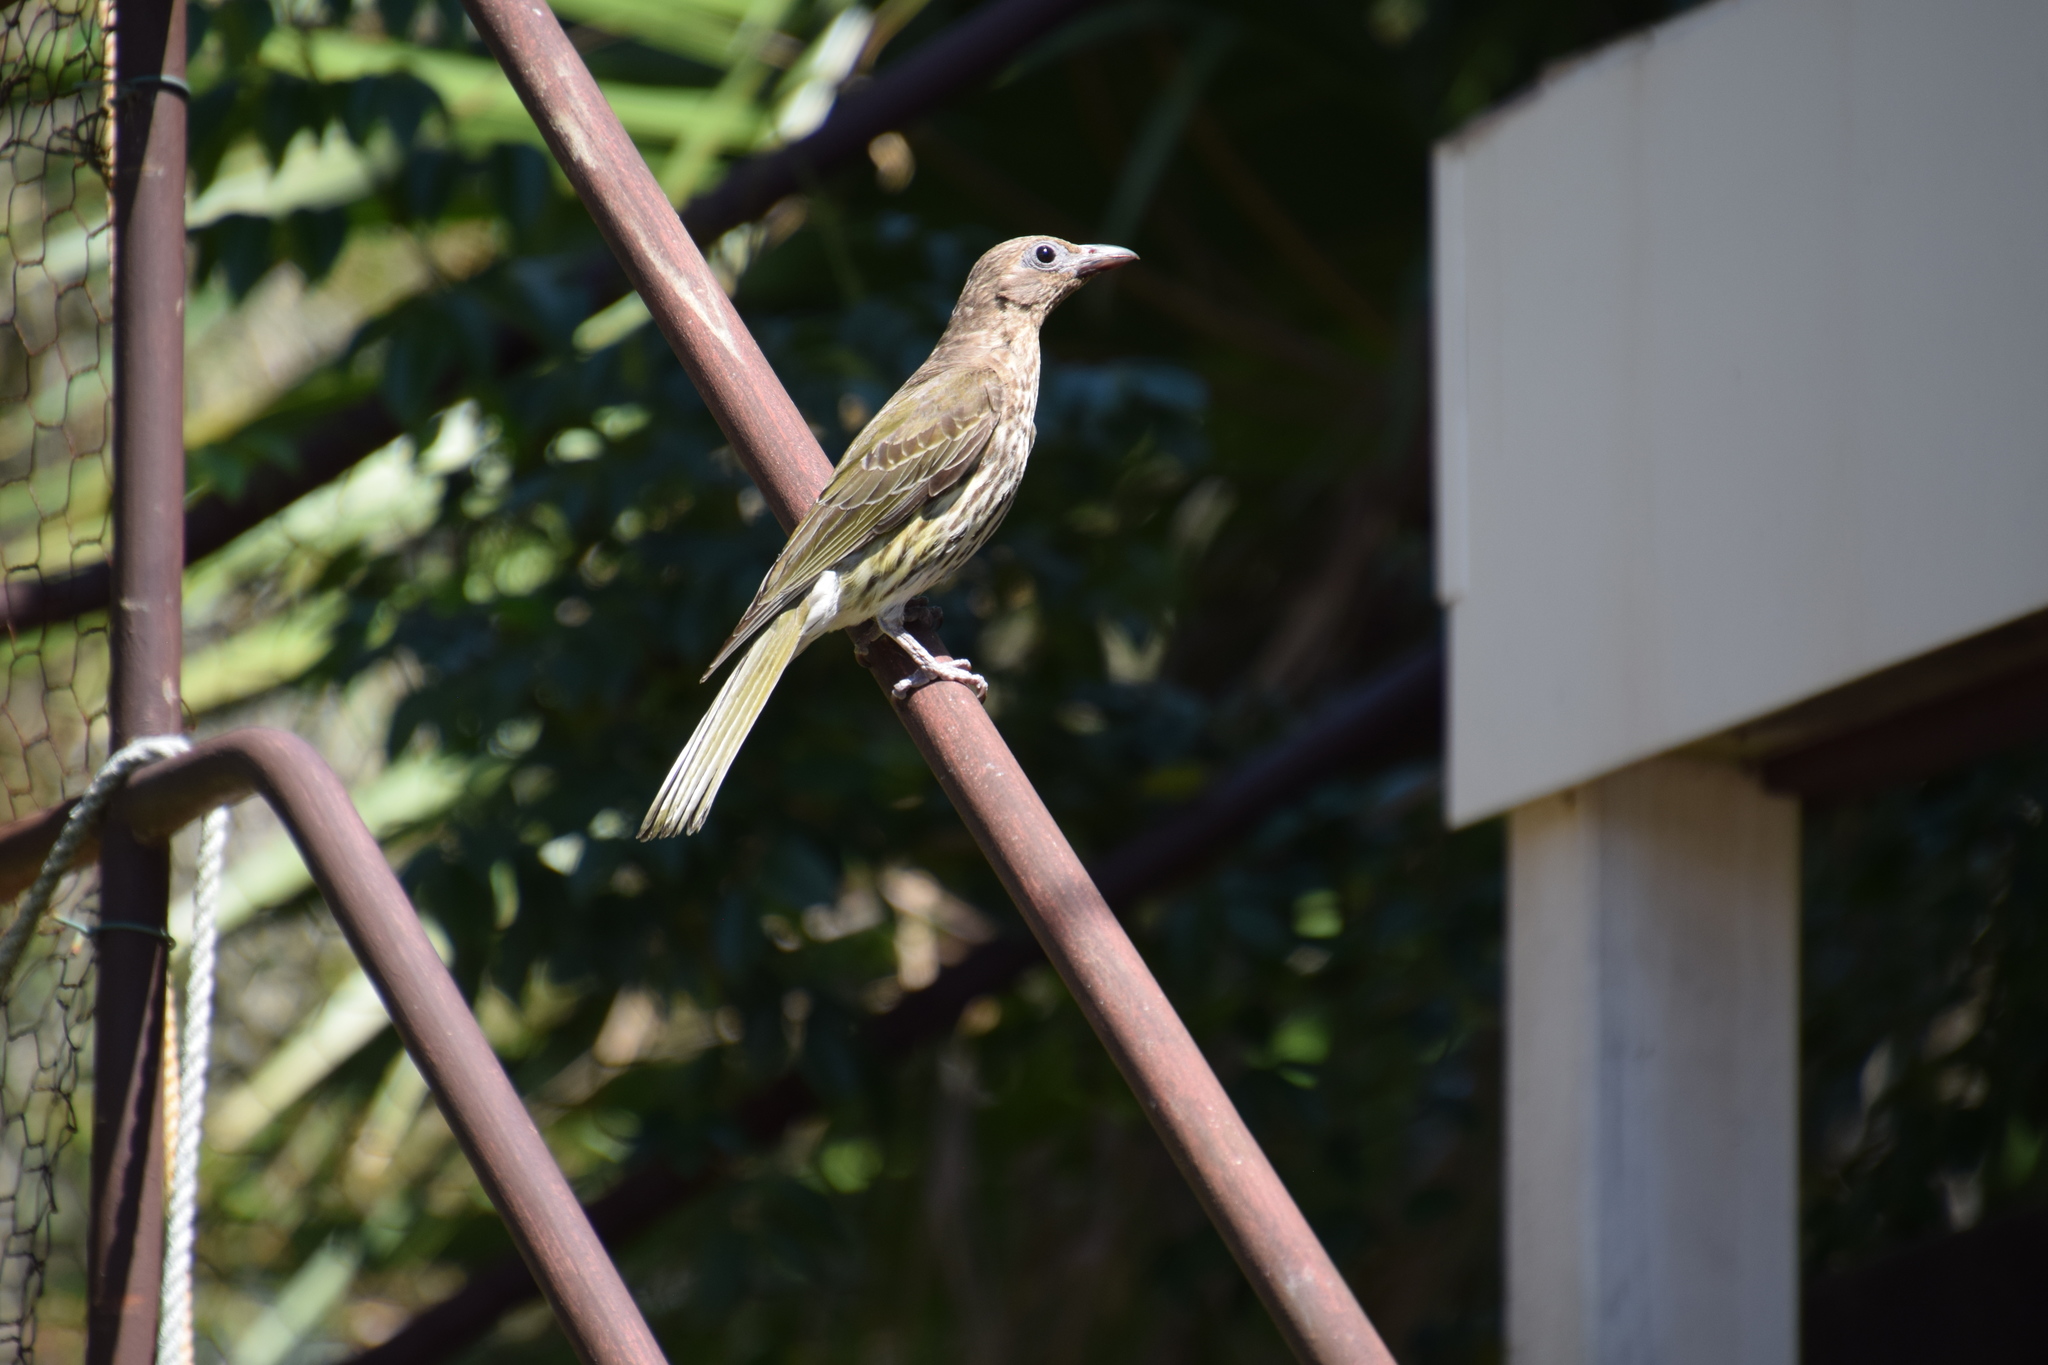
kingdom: Animalia
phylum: Chordata
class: Aves
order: Passeriformes
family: Oriolidae
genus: Sphecotheres
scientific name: Sphecotheres vieilloti
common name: Australasian figbird
